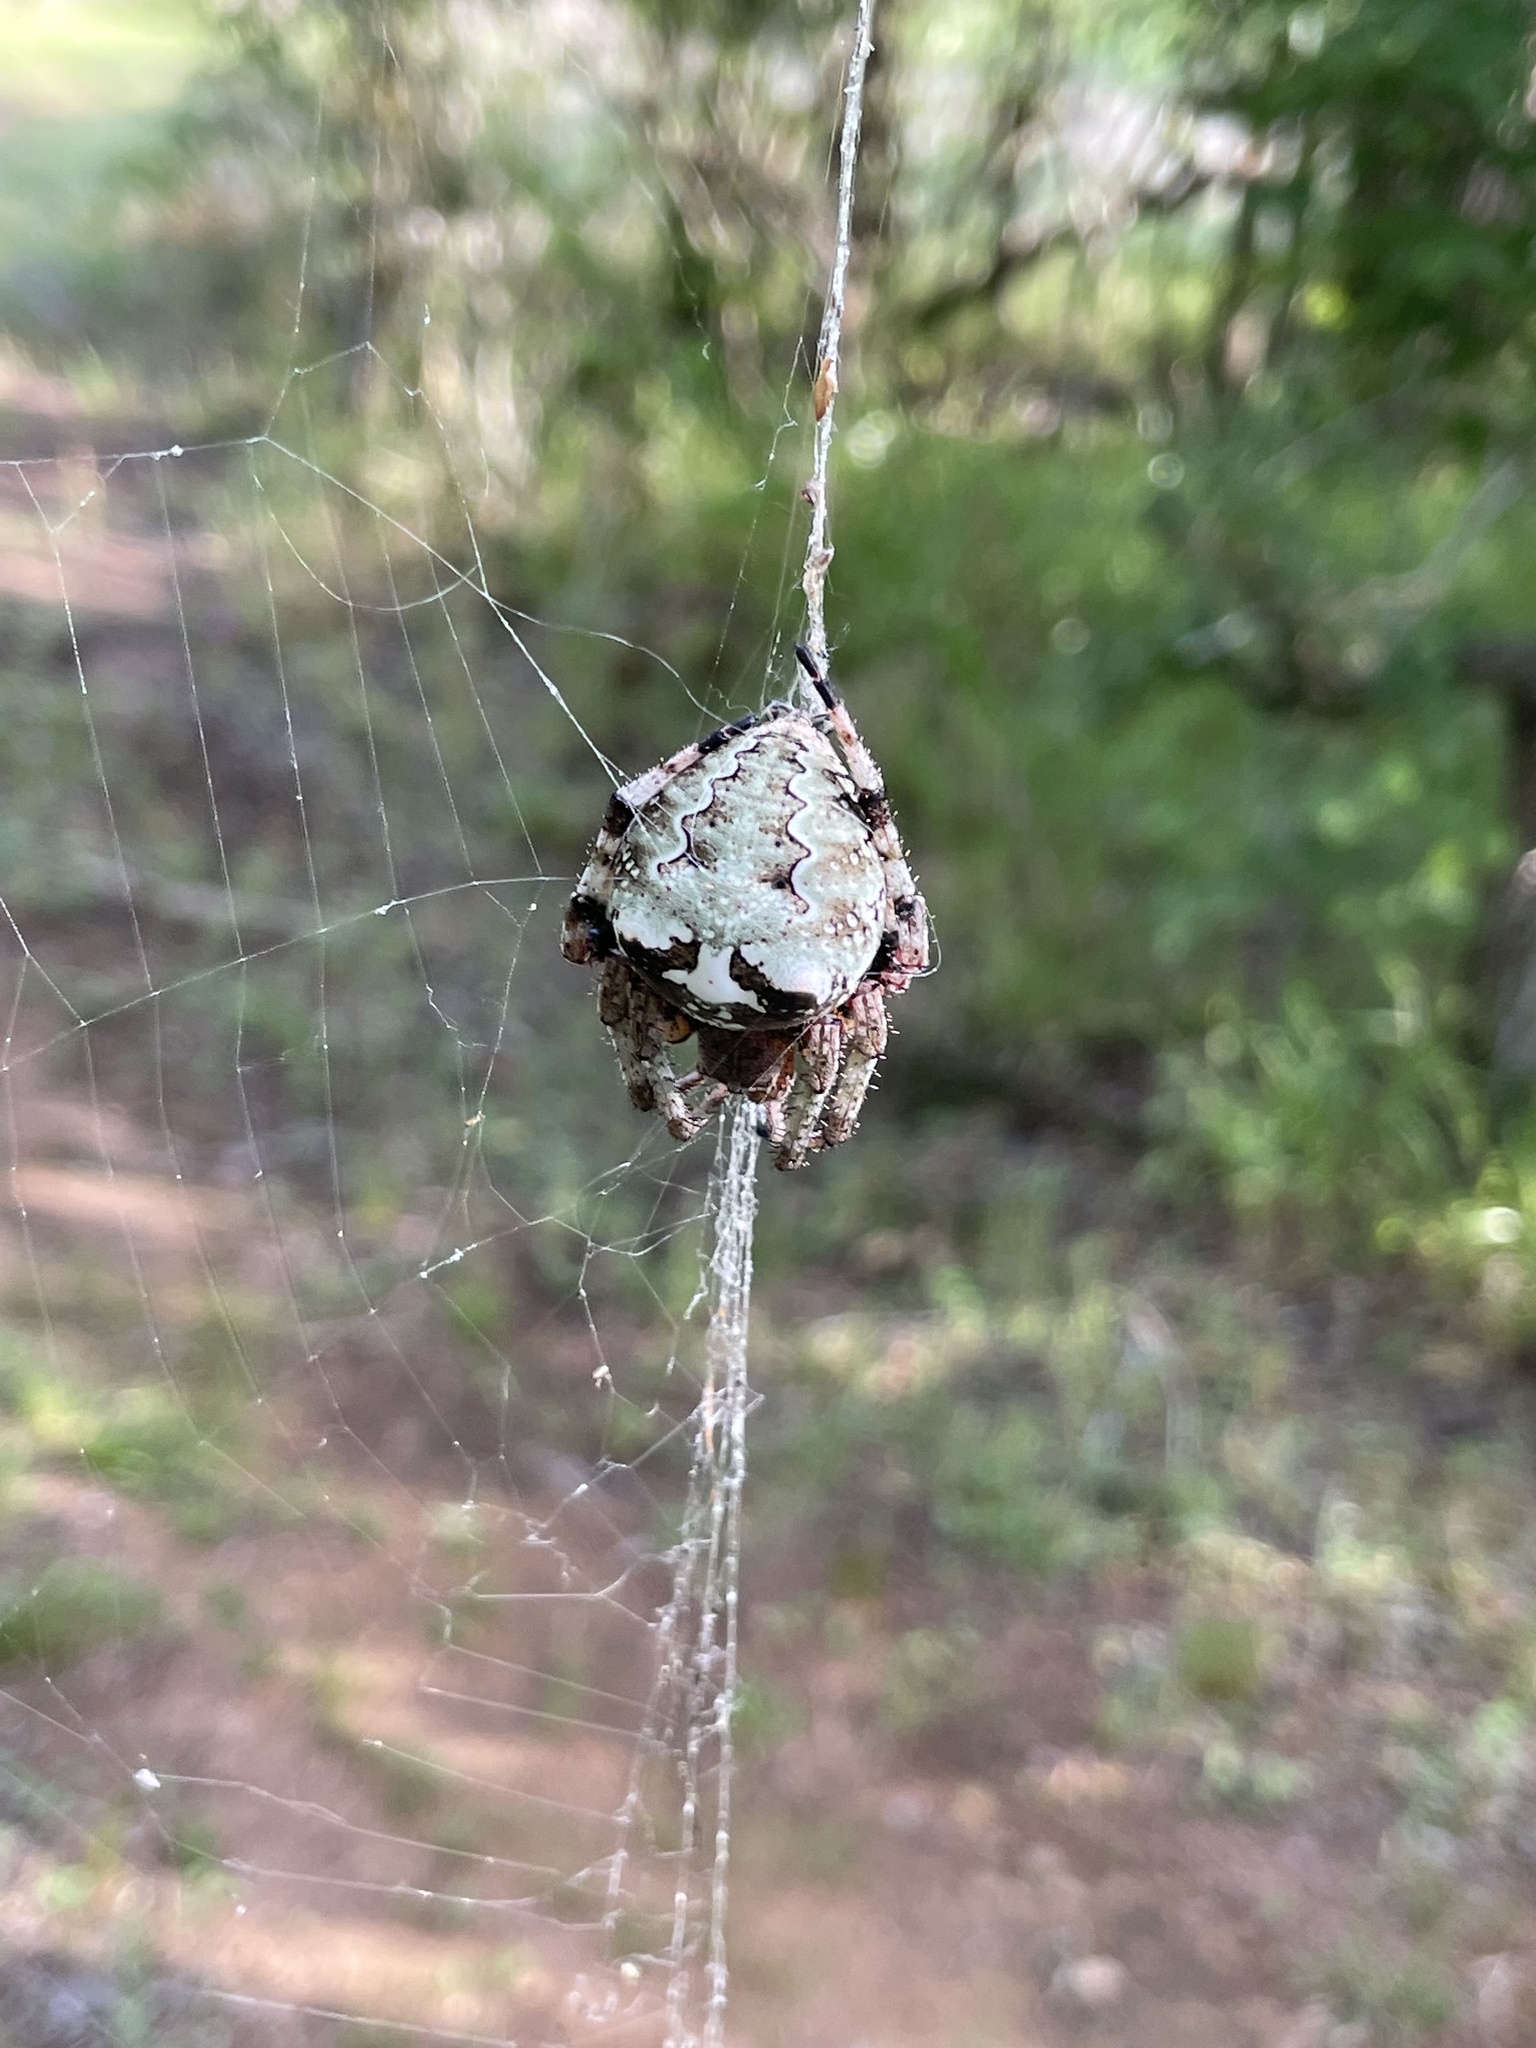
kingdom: Animalia
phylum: Arthropoda
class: Arachnida
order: Araneae
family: Araneidae
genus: Araneus
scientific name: Araneus bicentenarius
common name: Giant lichen orbweaver
